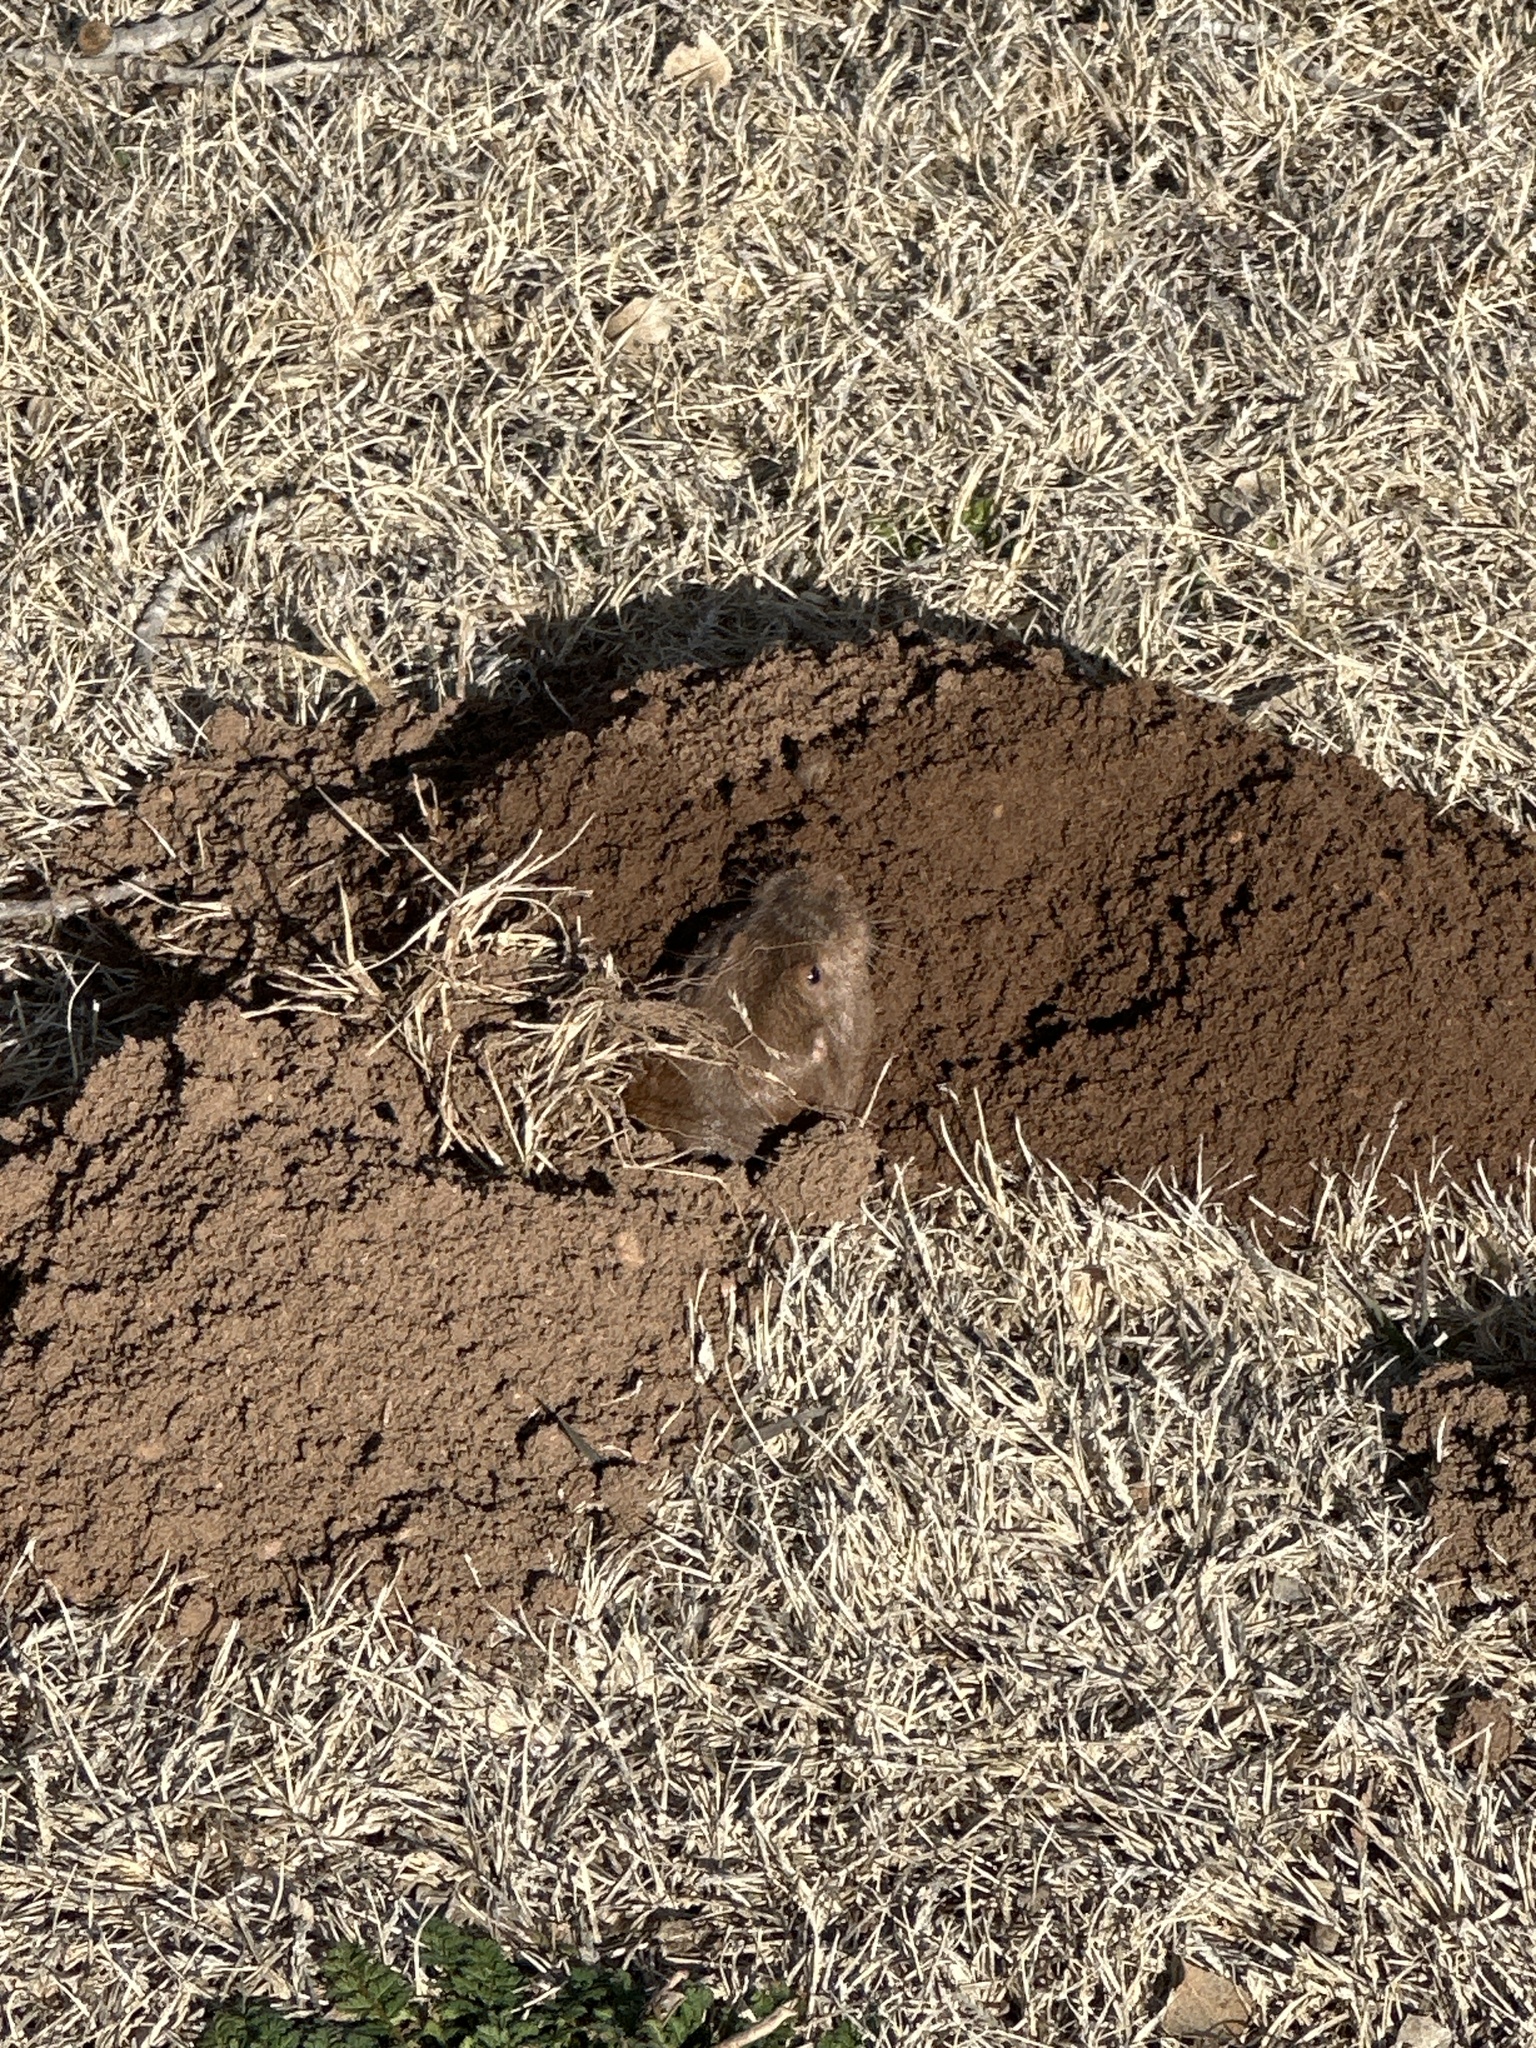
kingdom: Animalia
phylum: Chordata
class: Mammalia
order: Rodentia
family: Geomyidae
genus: Geomys
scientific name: Geomys bursarius
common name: Plains pocket gopher
